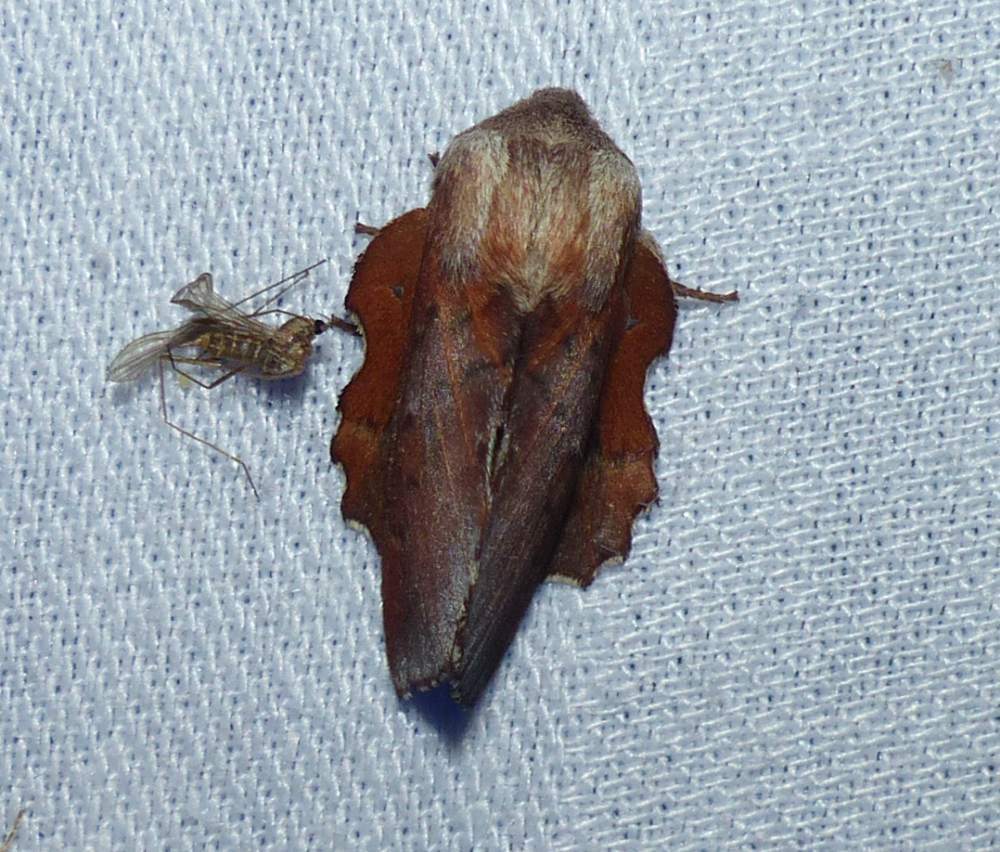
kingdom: Animalia
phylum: Arthropoda
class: Insecta
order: Lepidoptera
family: Lasiocampidae
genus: Phyllodesma
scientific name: Phyllodesma americana
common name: American lappet moth
